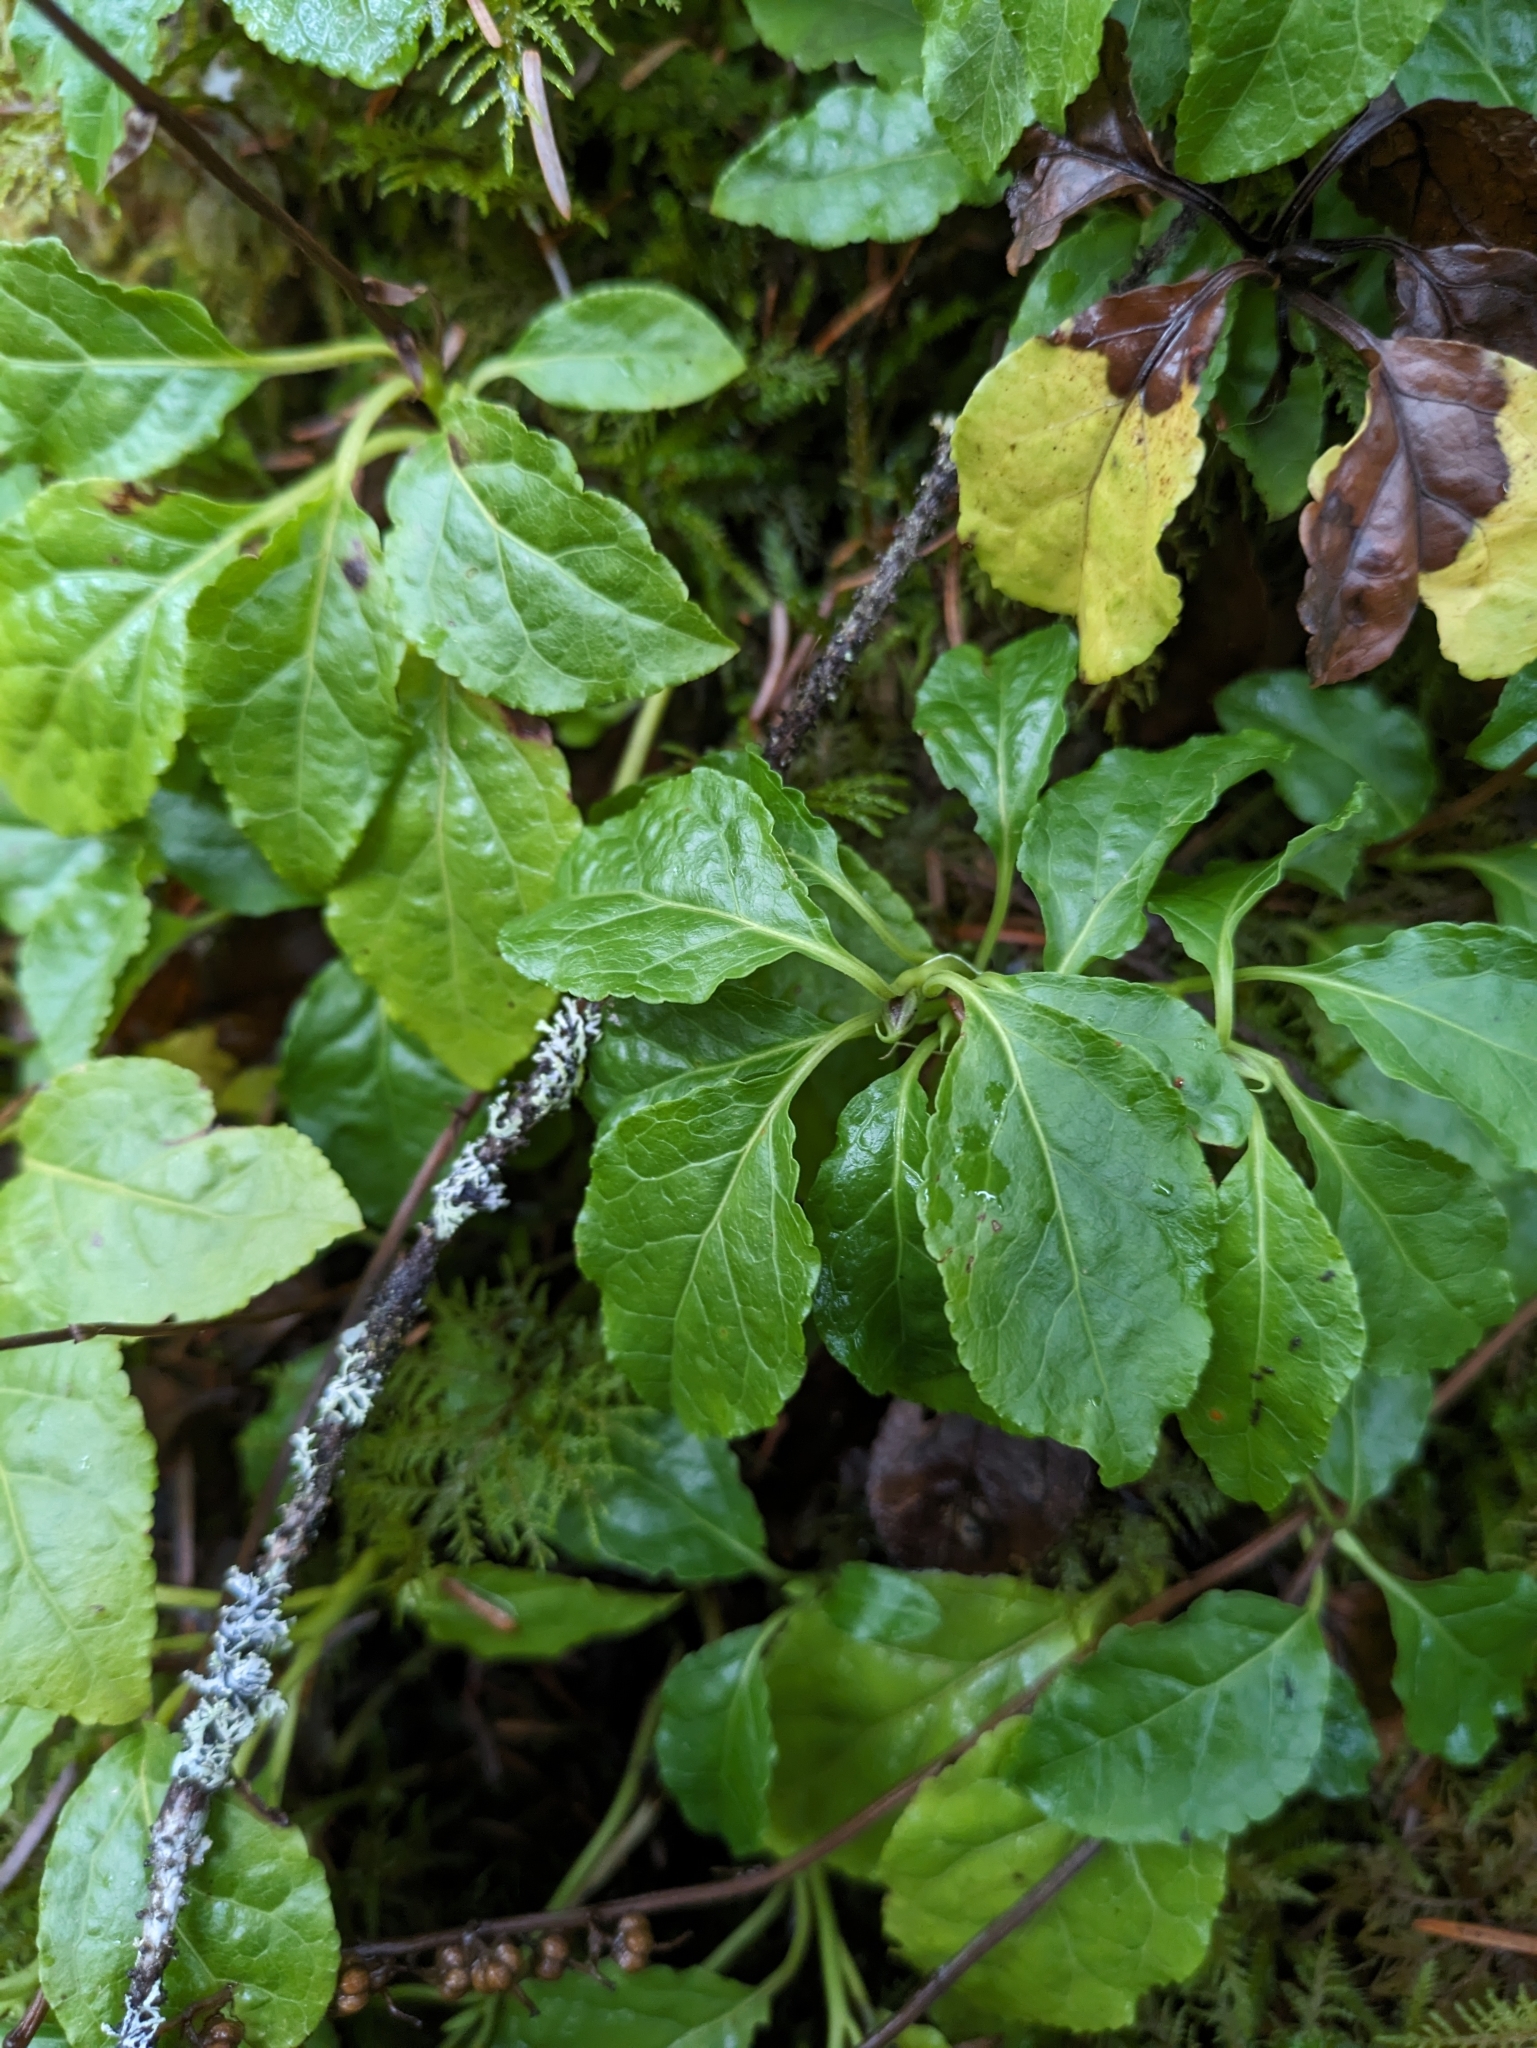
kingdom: Plantae
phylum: Tracheophyta
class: Magnoliopsida
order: Ericales
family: Ericaceae
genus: Orthilia
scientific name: Orthilia secunda
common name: One-sided orthilia
